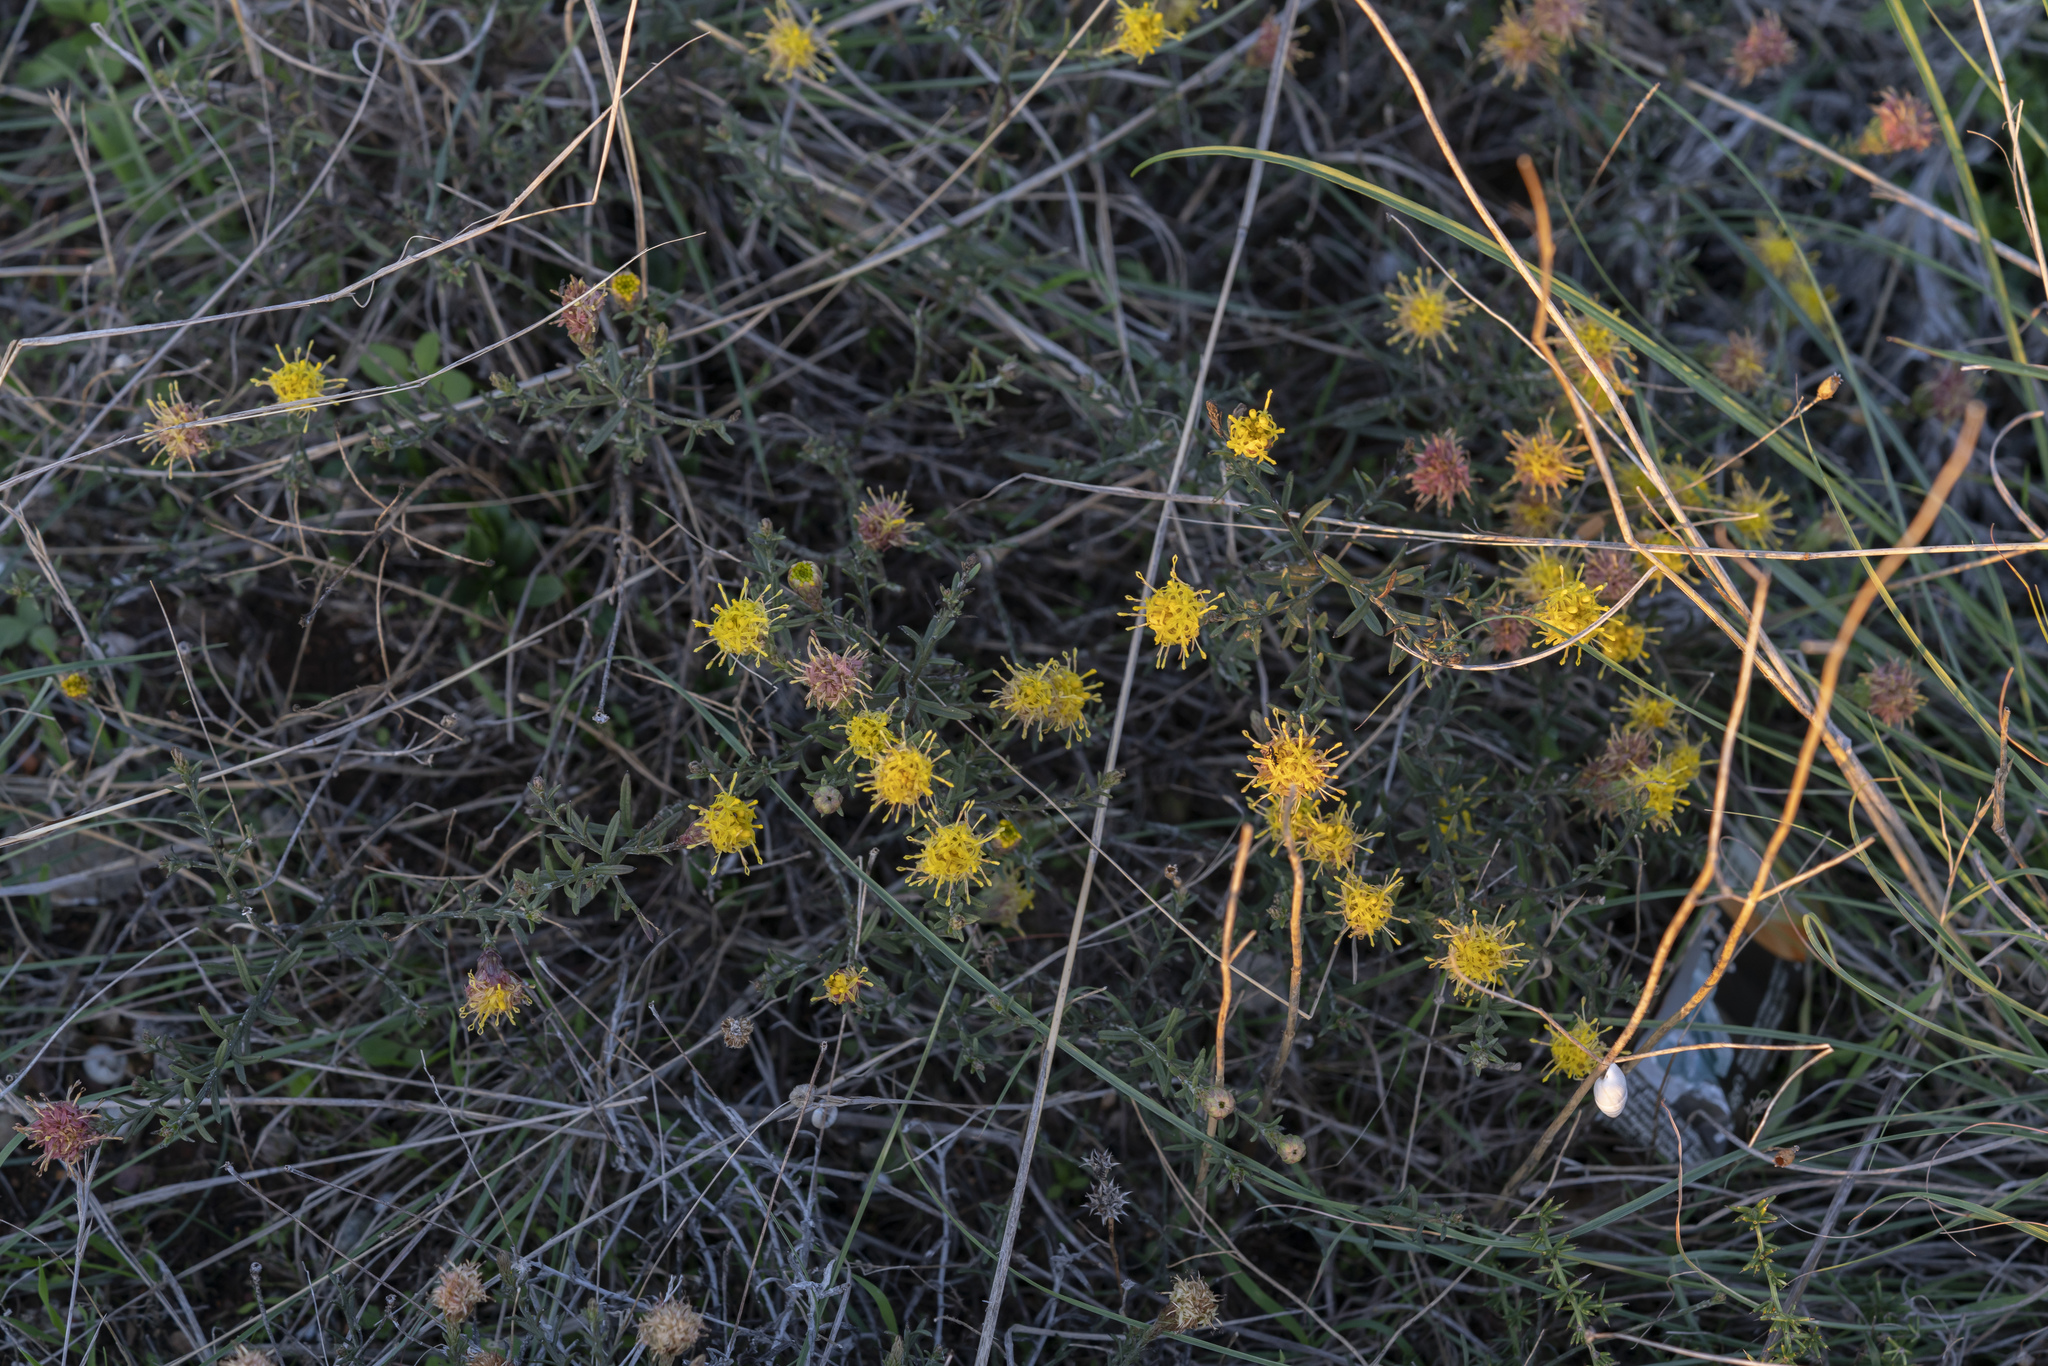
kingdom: Plantae
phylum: Tracheophyta
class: Magnoliopsida
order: Asterales
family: Asteraceae
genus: Galatella
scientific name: Galatella cretica
